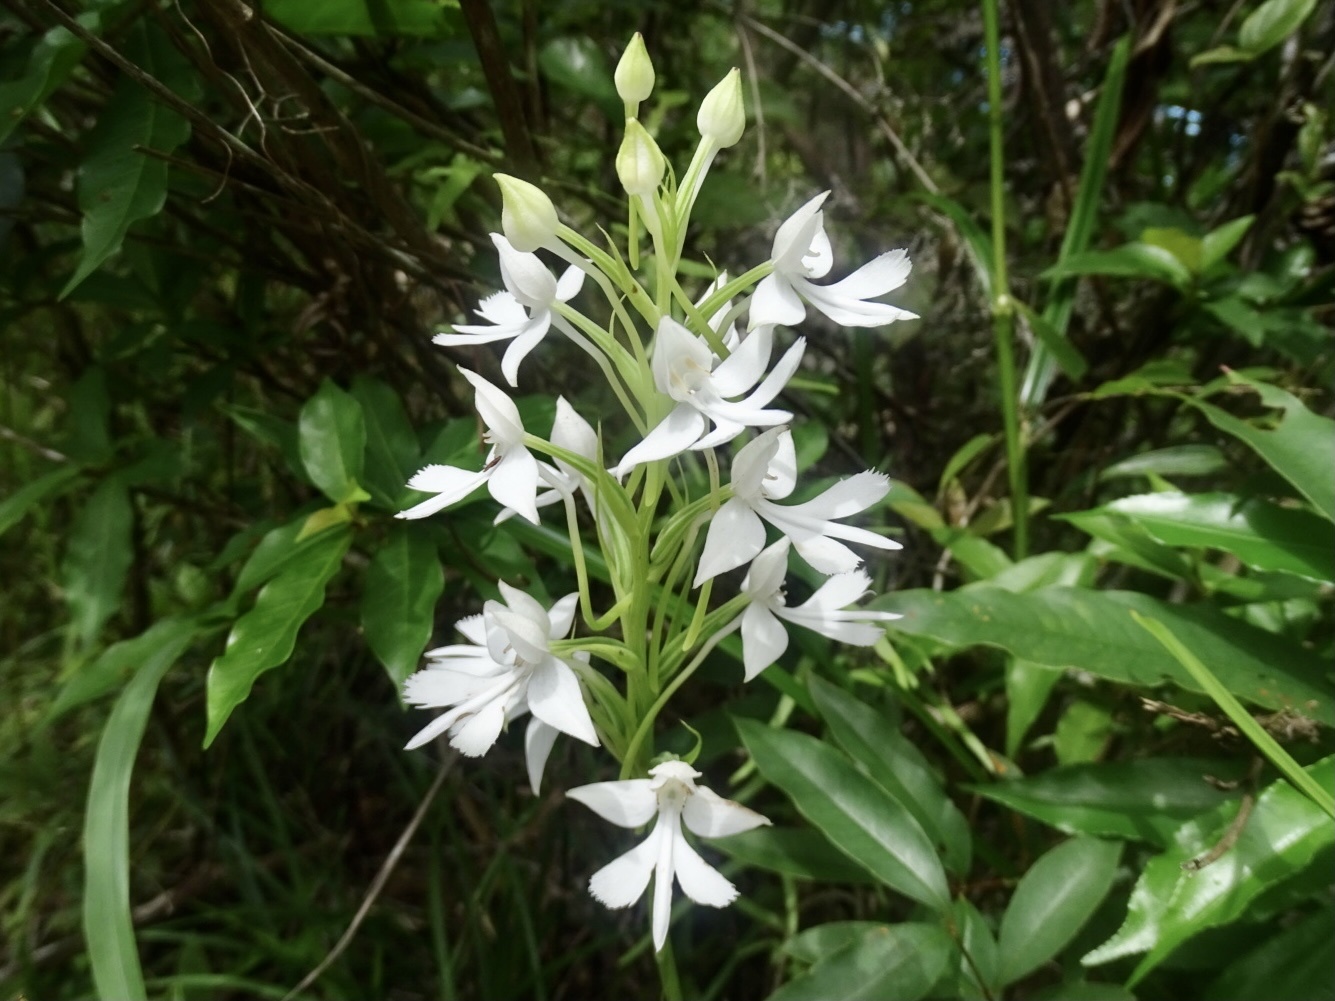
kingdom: Plantae
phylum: Tracheophyta
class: Liliopsida
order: Asparagales
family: Orchidaceae
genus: Habenaria
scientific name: Habenaria dentata
